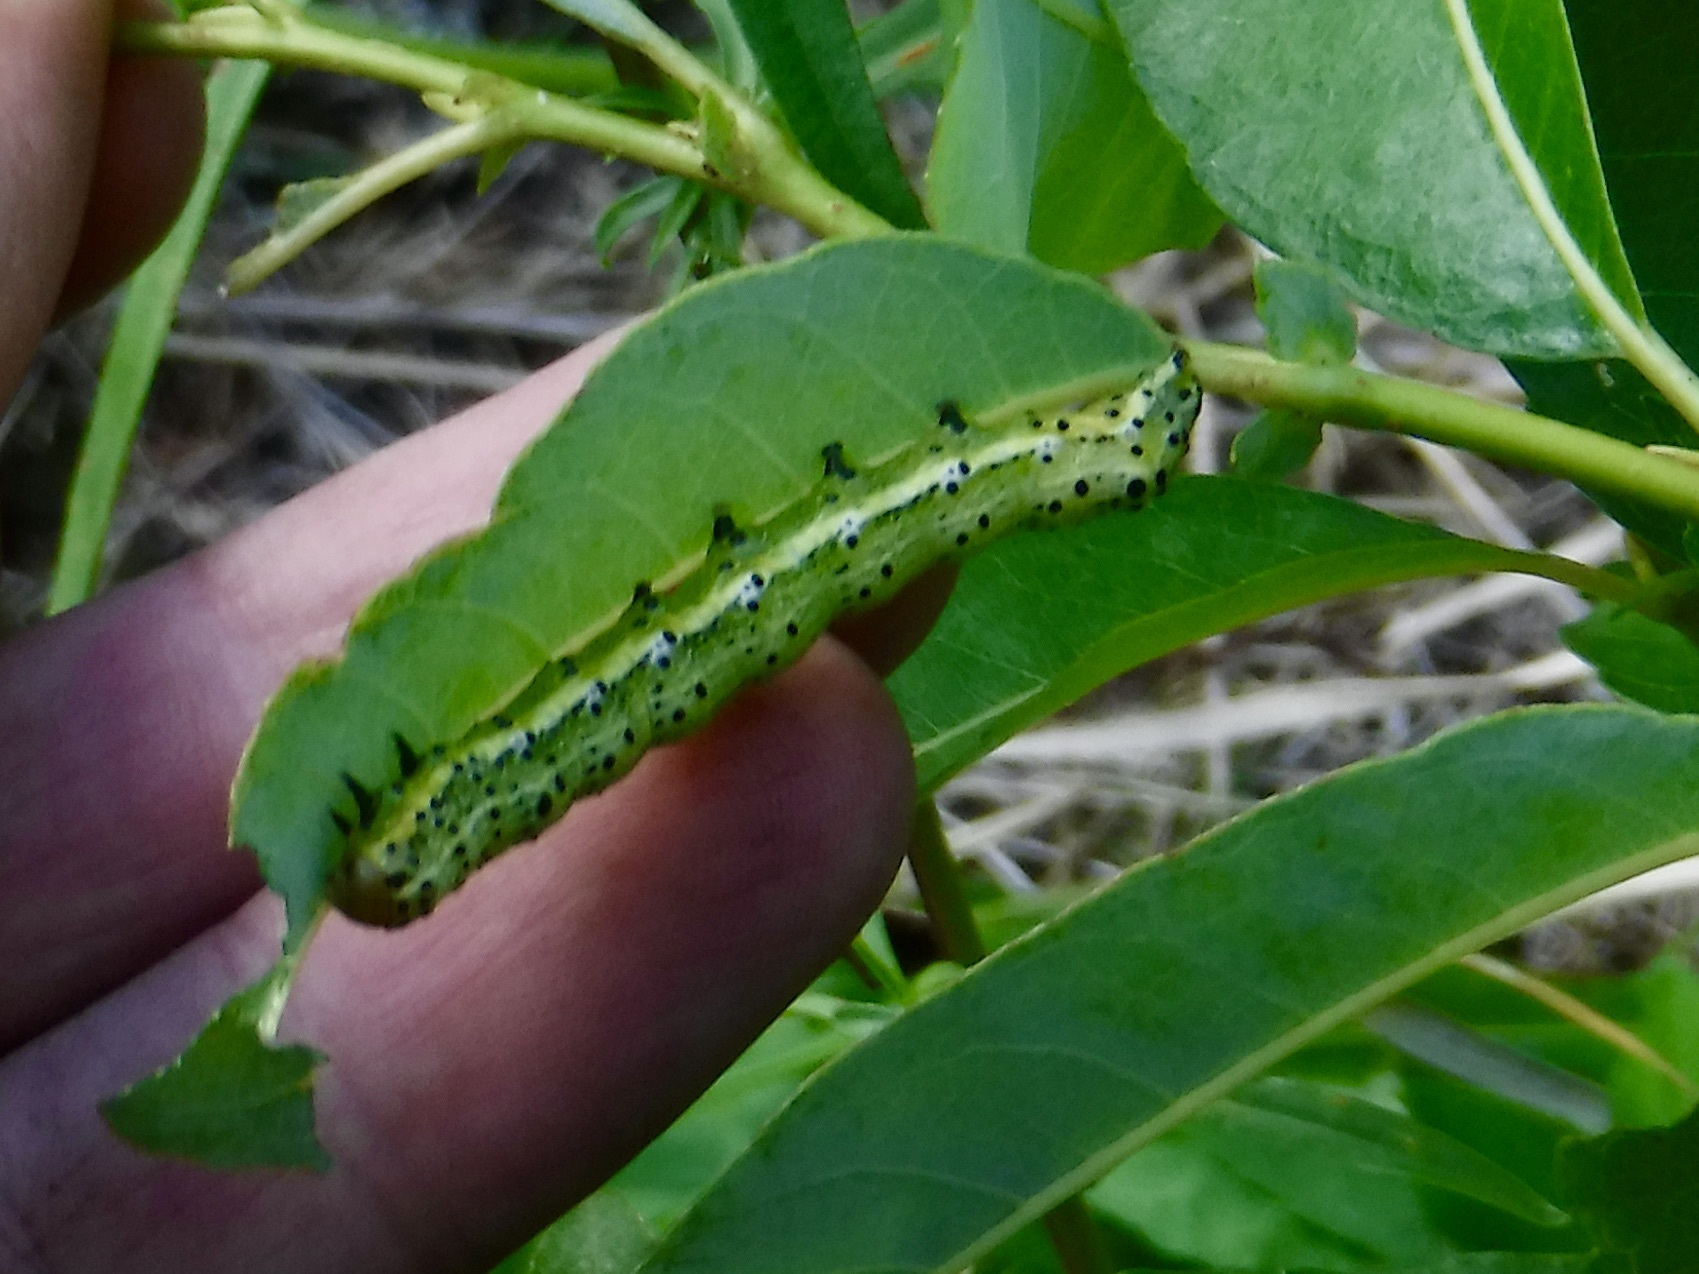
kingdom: Animalia
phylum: Arthropoda
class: Insecta
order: Lepidoptera
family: Noctuidae
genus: Pyrrhia
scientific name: Pyrrhia exprimens
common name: Purple-lined sallow
